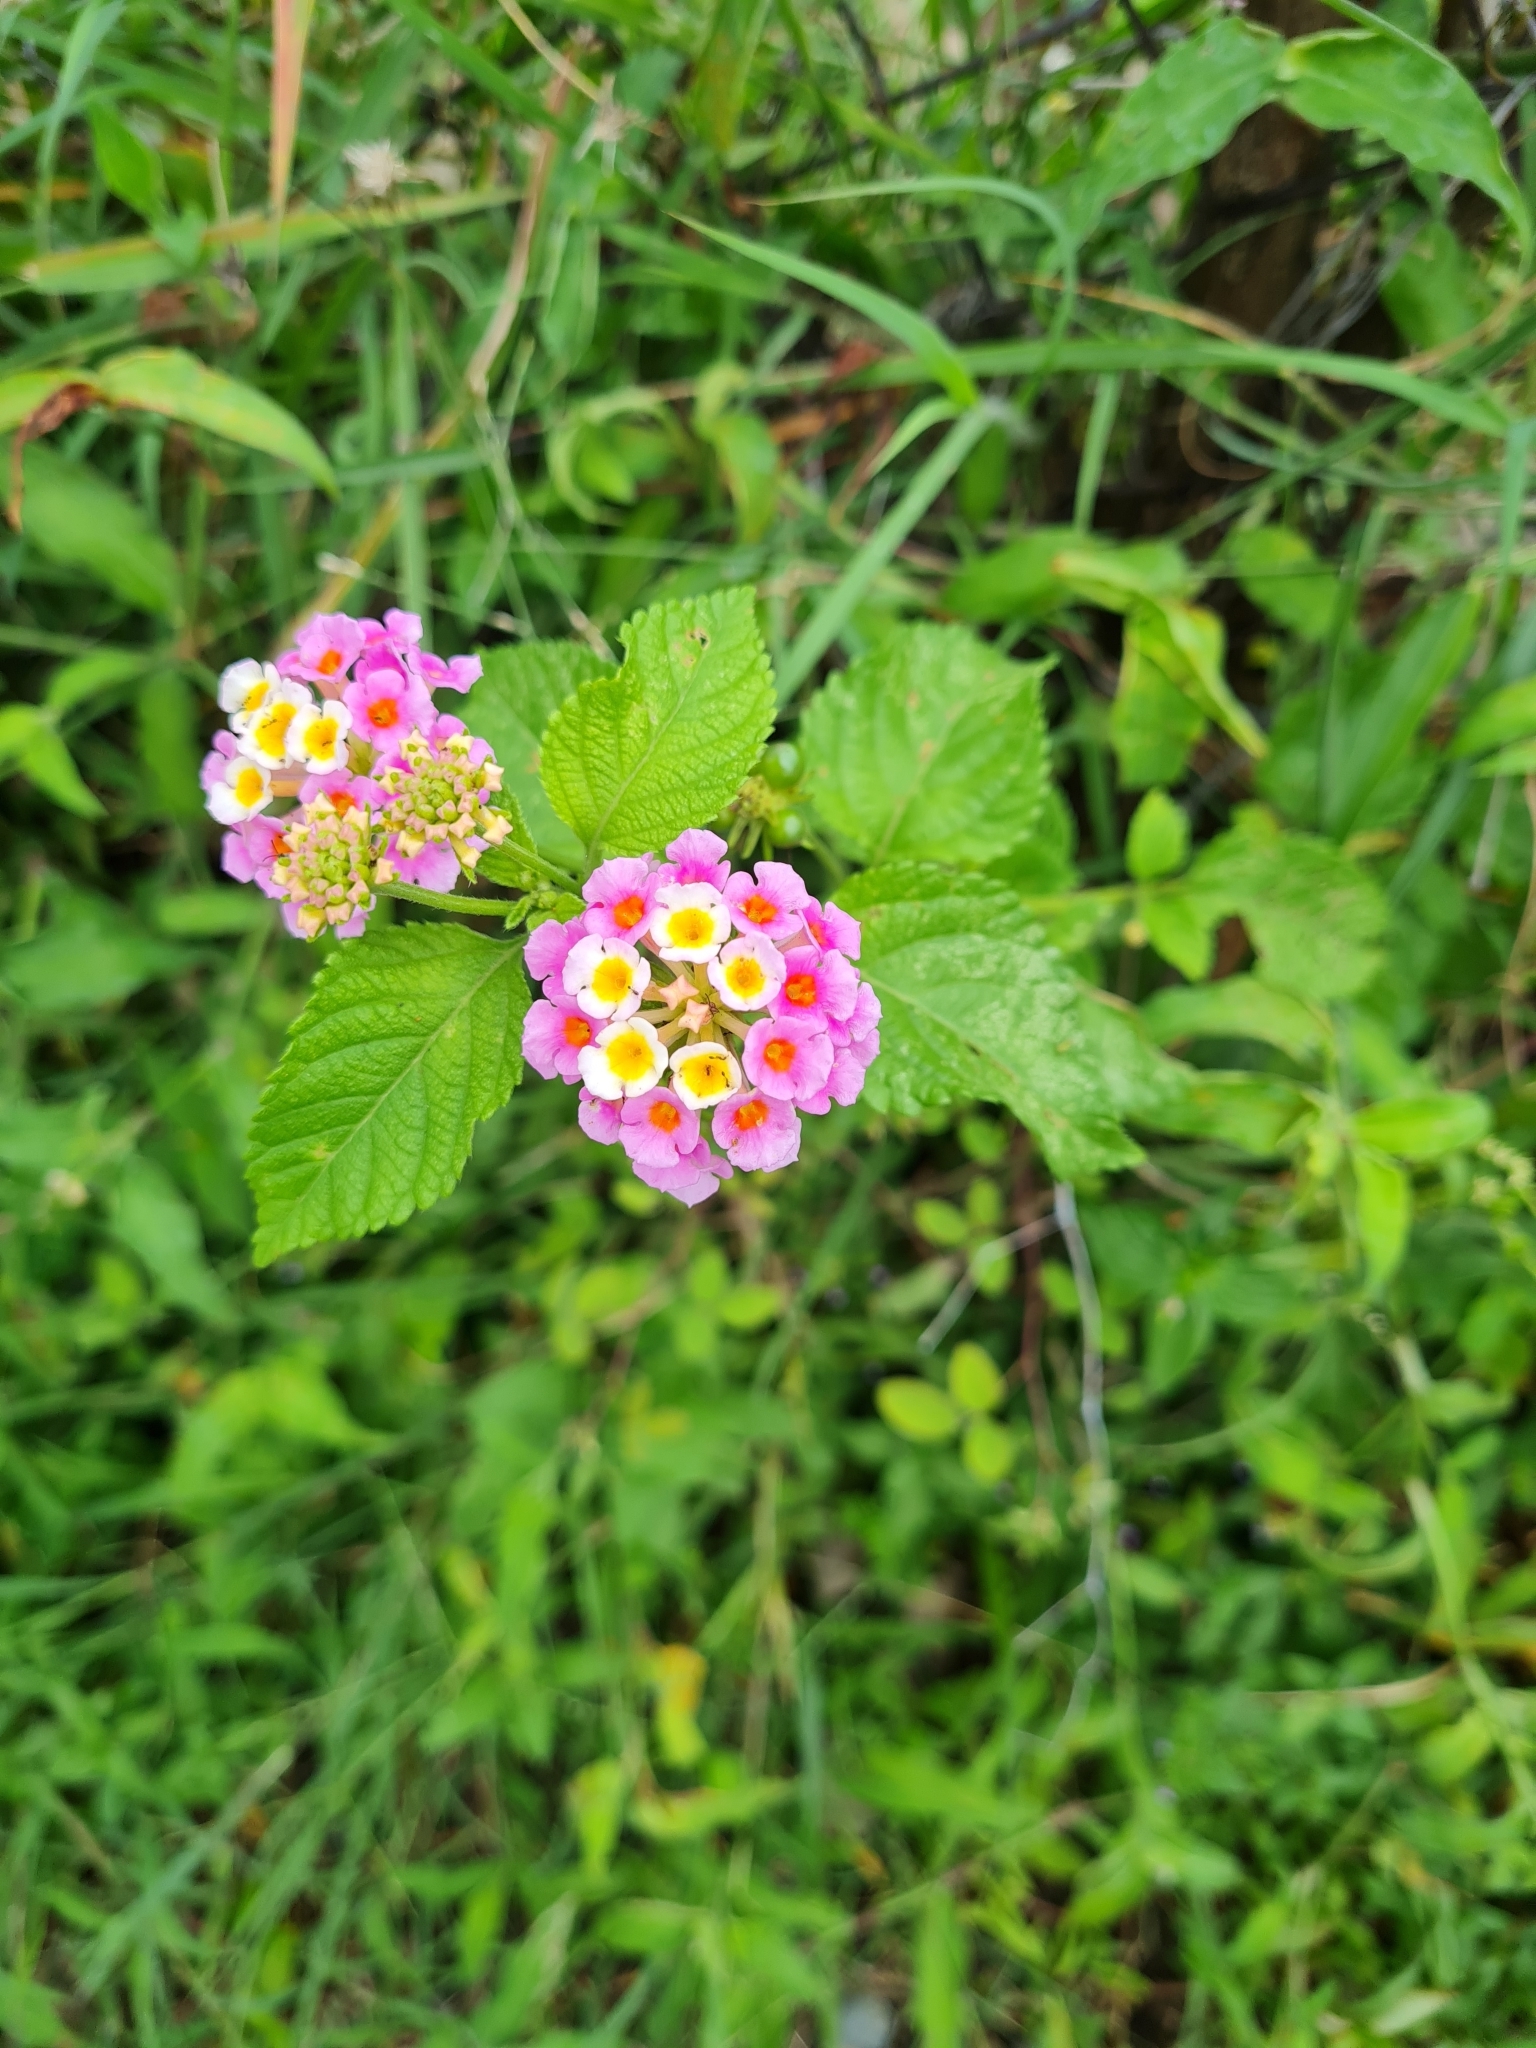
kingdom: Plantae
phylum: Tracheophyta
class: Magnoliopsida
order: Lamiales
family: Verbenaceae
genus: Lantana
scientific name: Lantana camara
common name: Lantana
